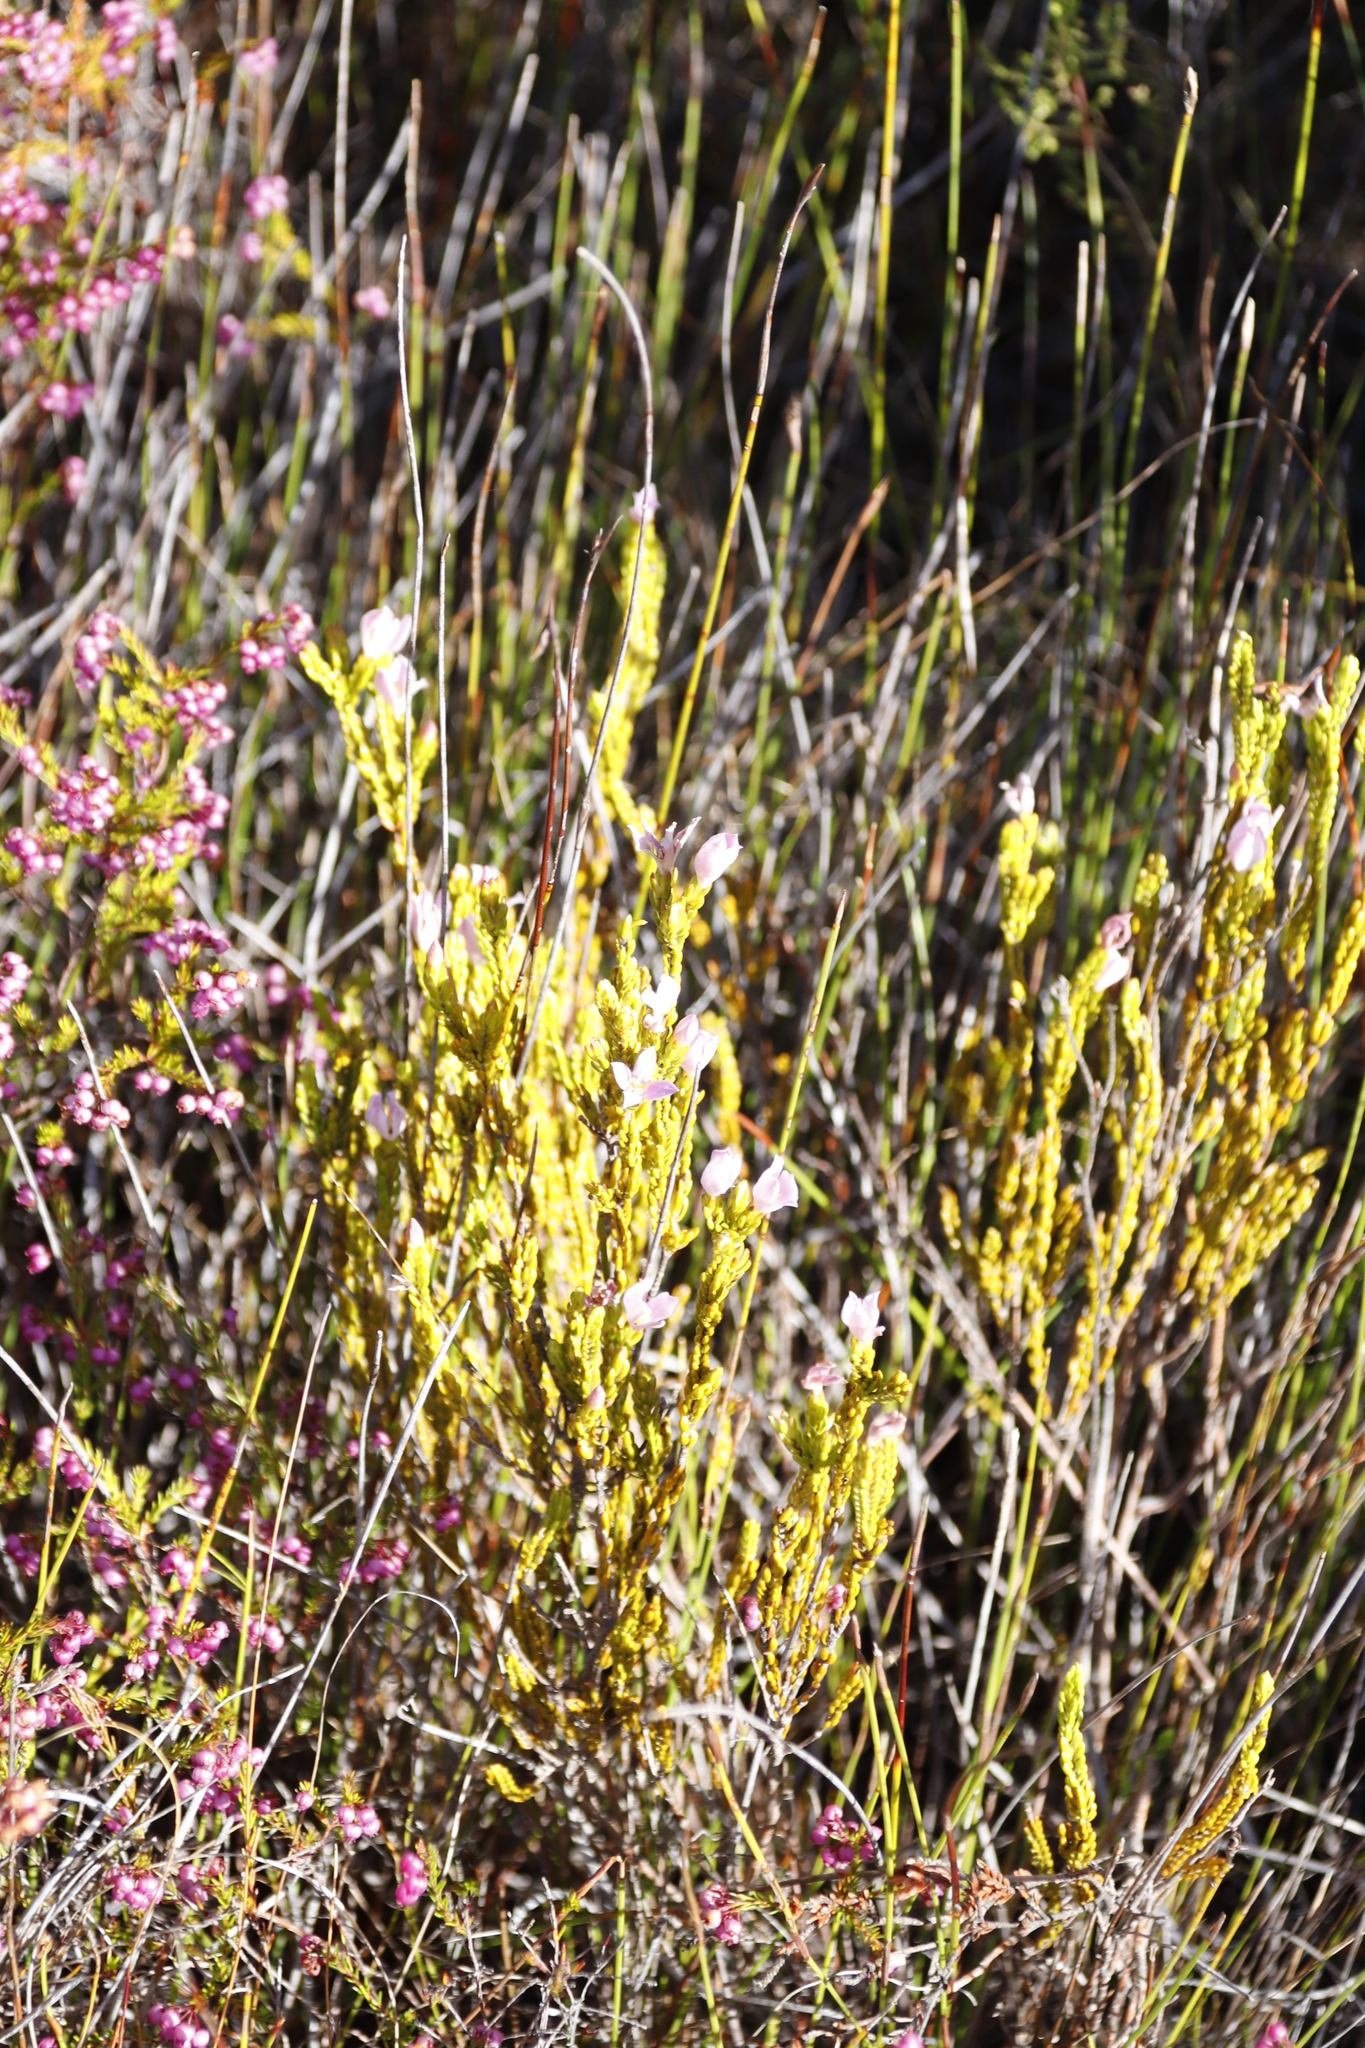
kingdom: Plantae
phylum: Tracheophyta
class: Magnoliopsida
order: Malvales
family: Thymelaeaceae
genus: Lachnaea
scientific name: Lachnaea grandiflora
